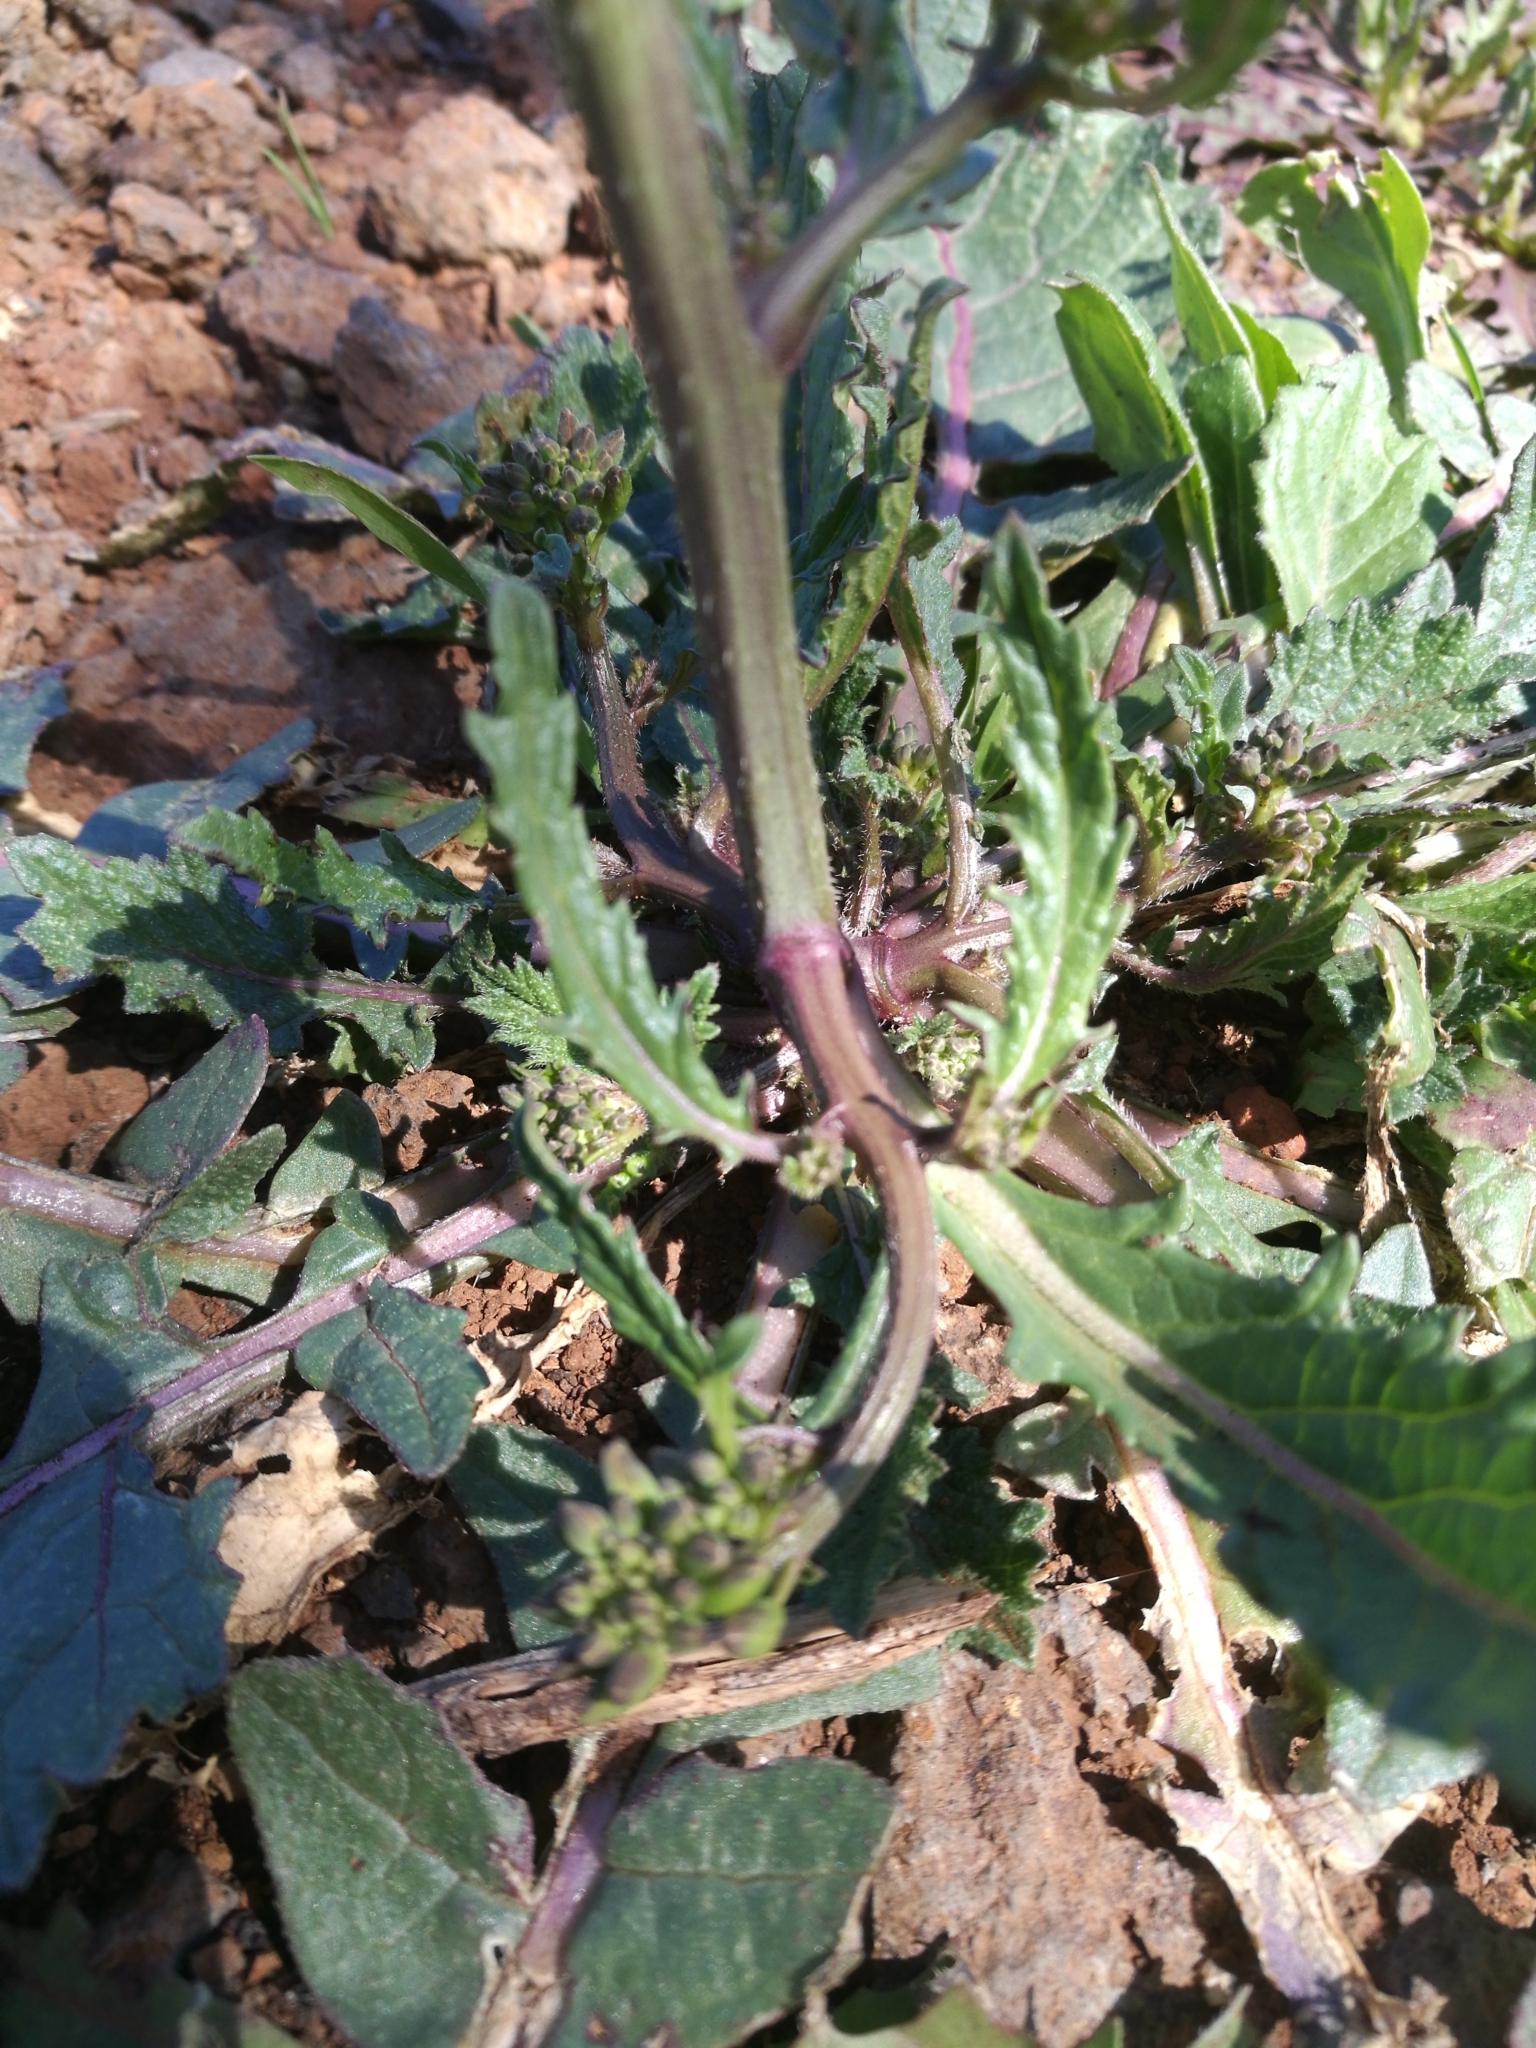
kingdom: Plantae
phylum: Tracheophyta
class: Magnoliopsida
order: Brassicales
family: Brassicaceae
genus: Hirschfeldia
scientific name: Hirschfeldia incana
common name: Hoary mustard
